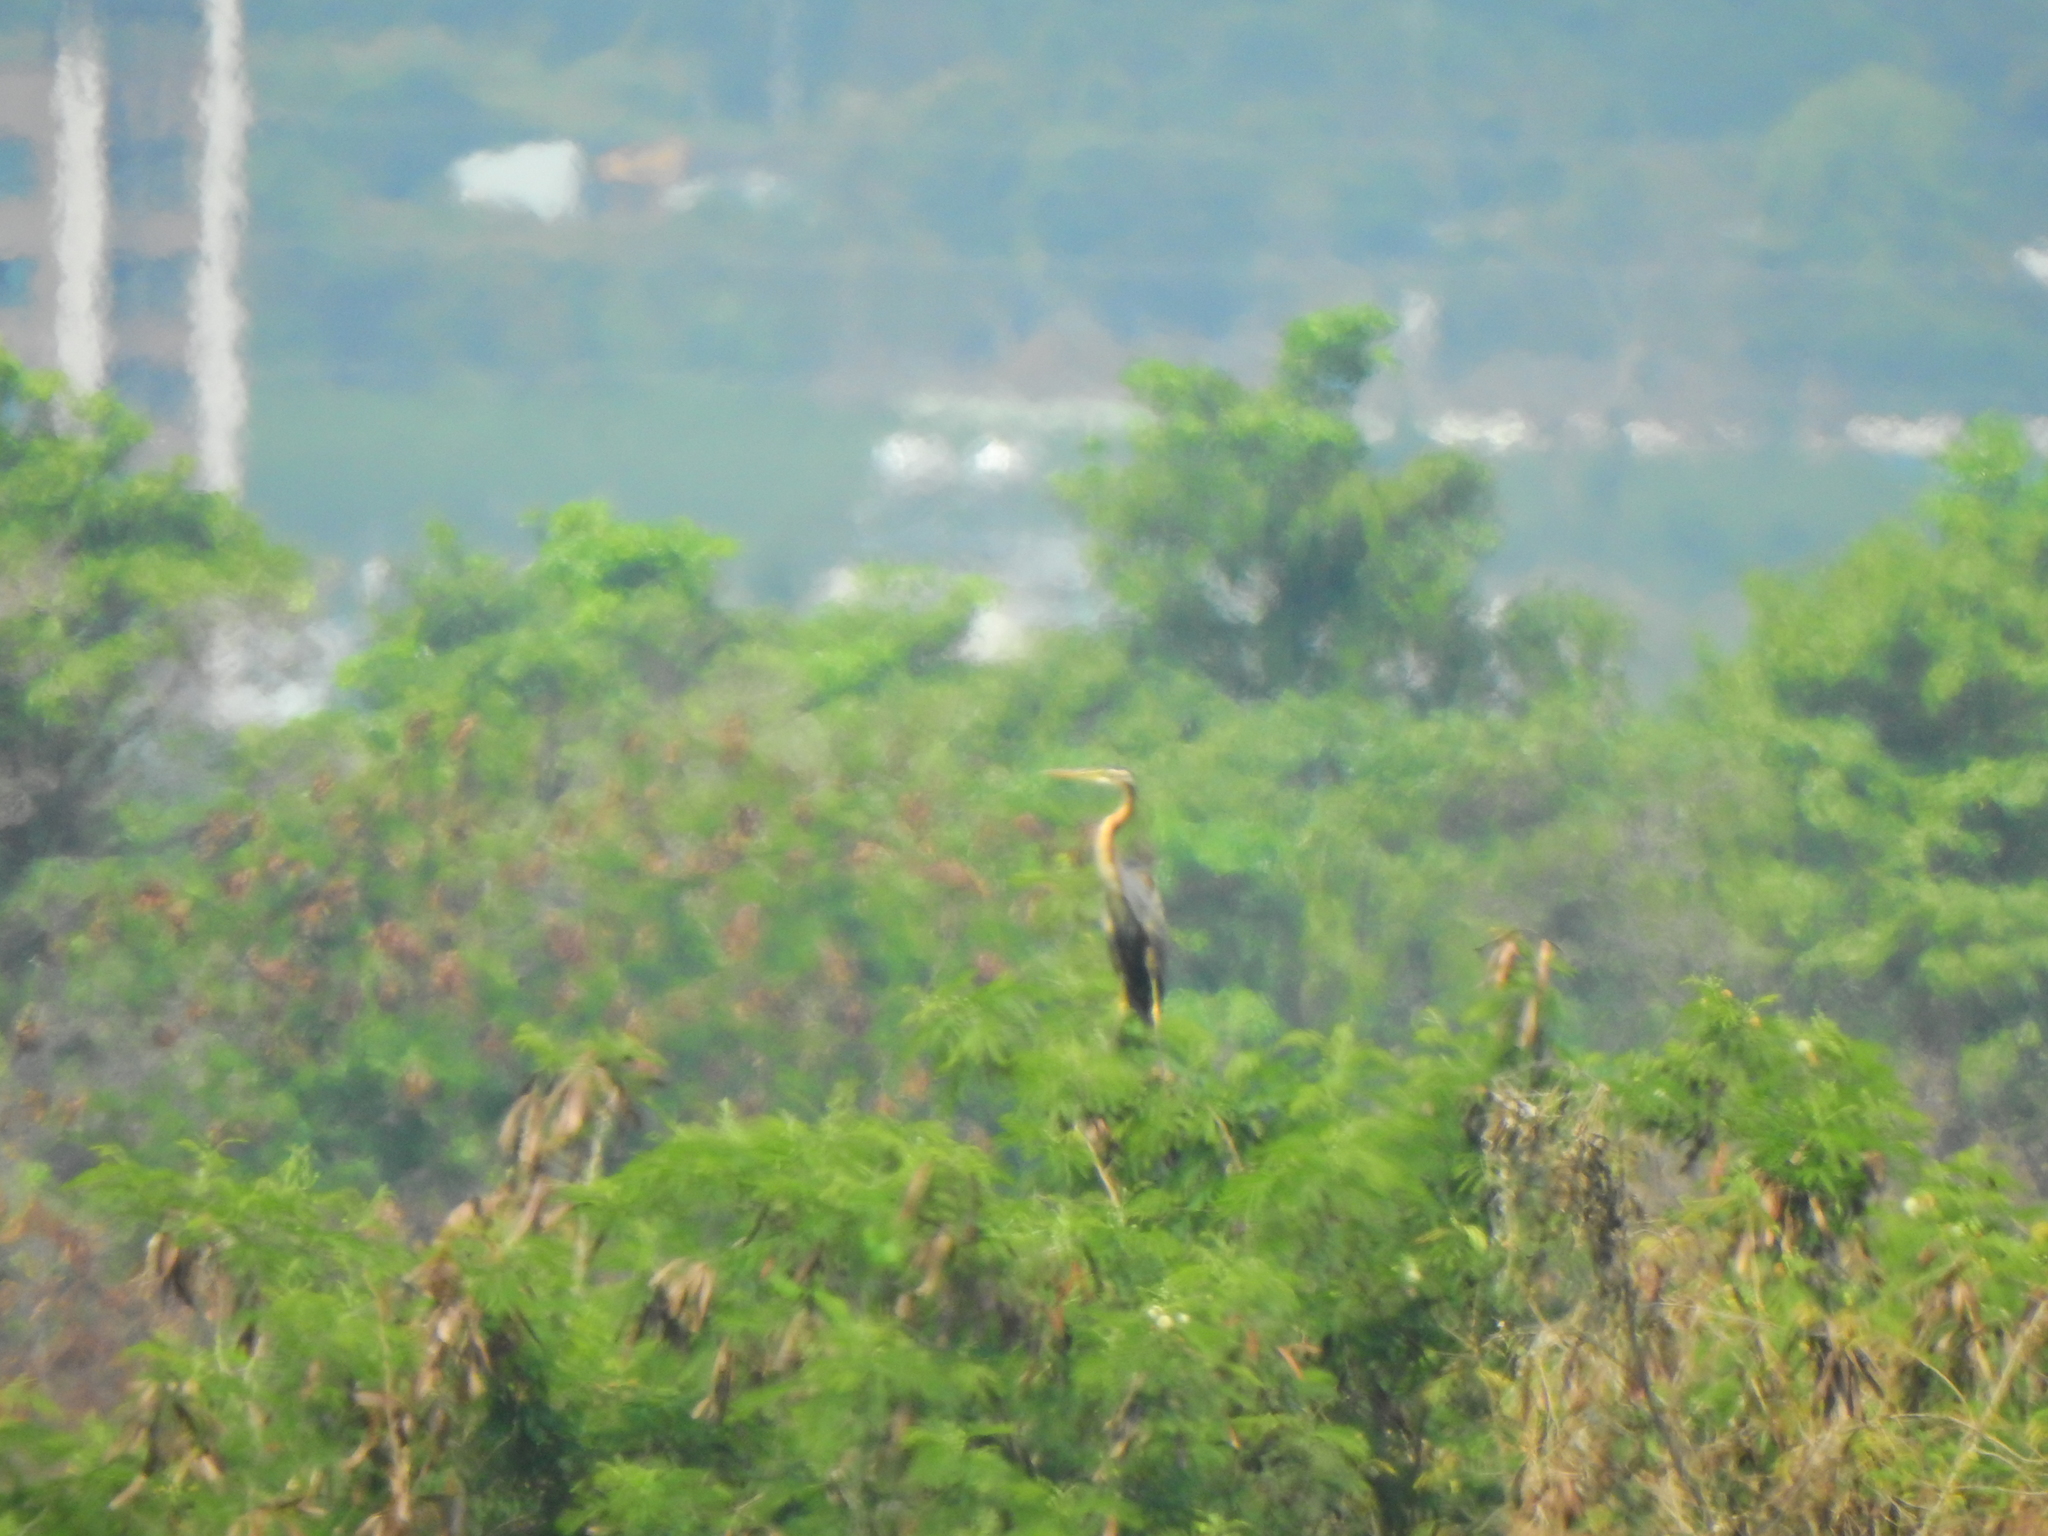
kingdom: Animalia
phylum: Chordata
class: Aves
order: Pelecaniformes
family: Ardeidae
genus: Ardea
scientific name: Ardea purpurea
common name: Purple heron
